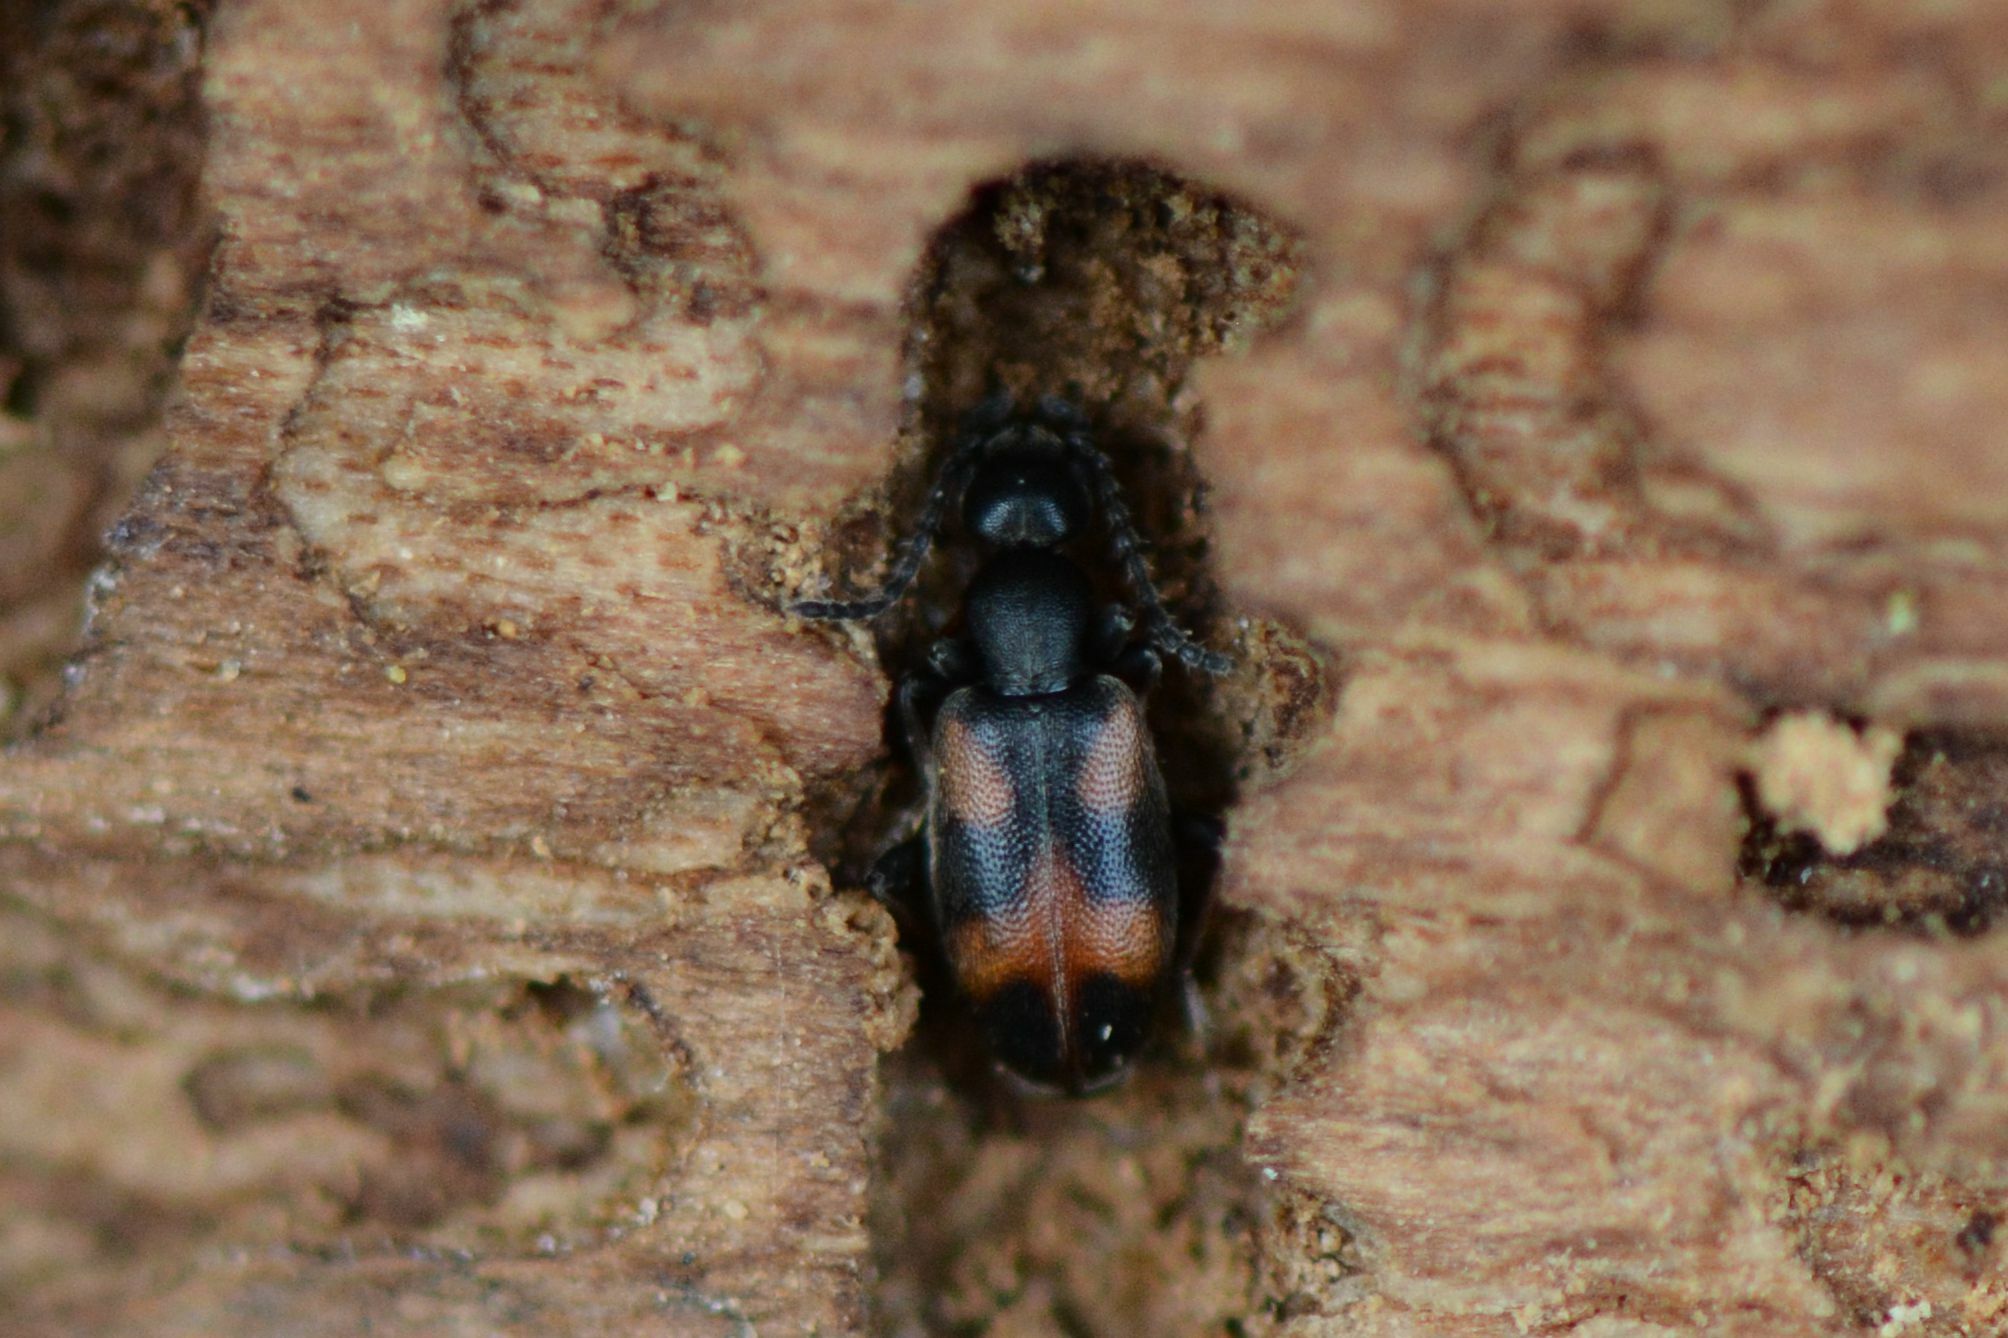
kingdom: Animalia
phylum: Arthropoda
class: Insecta
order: Coleoptera
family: Anthicidae
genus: Anthicus
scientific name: Anthicus antherinus
